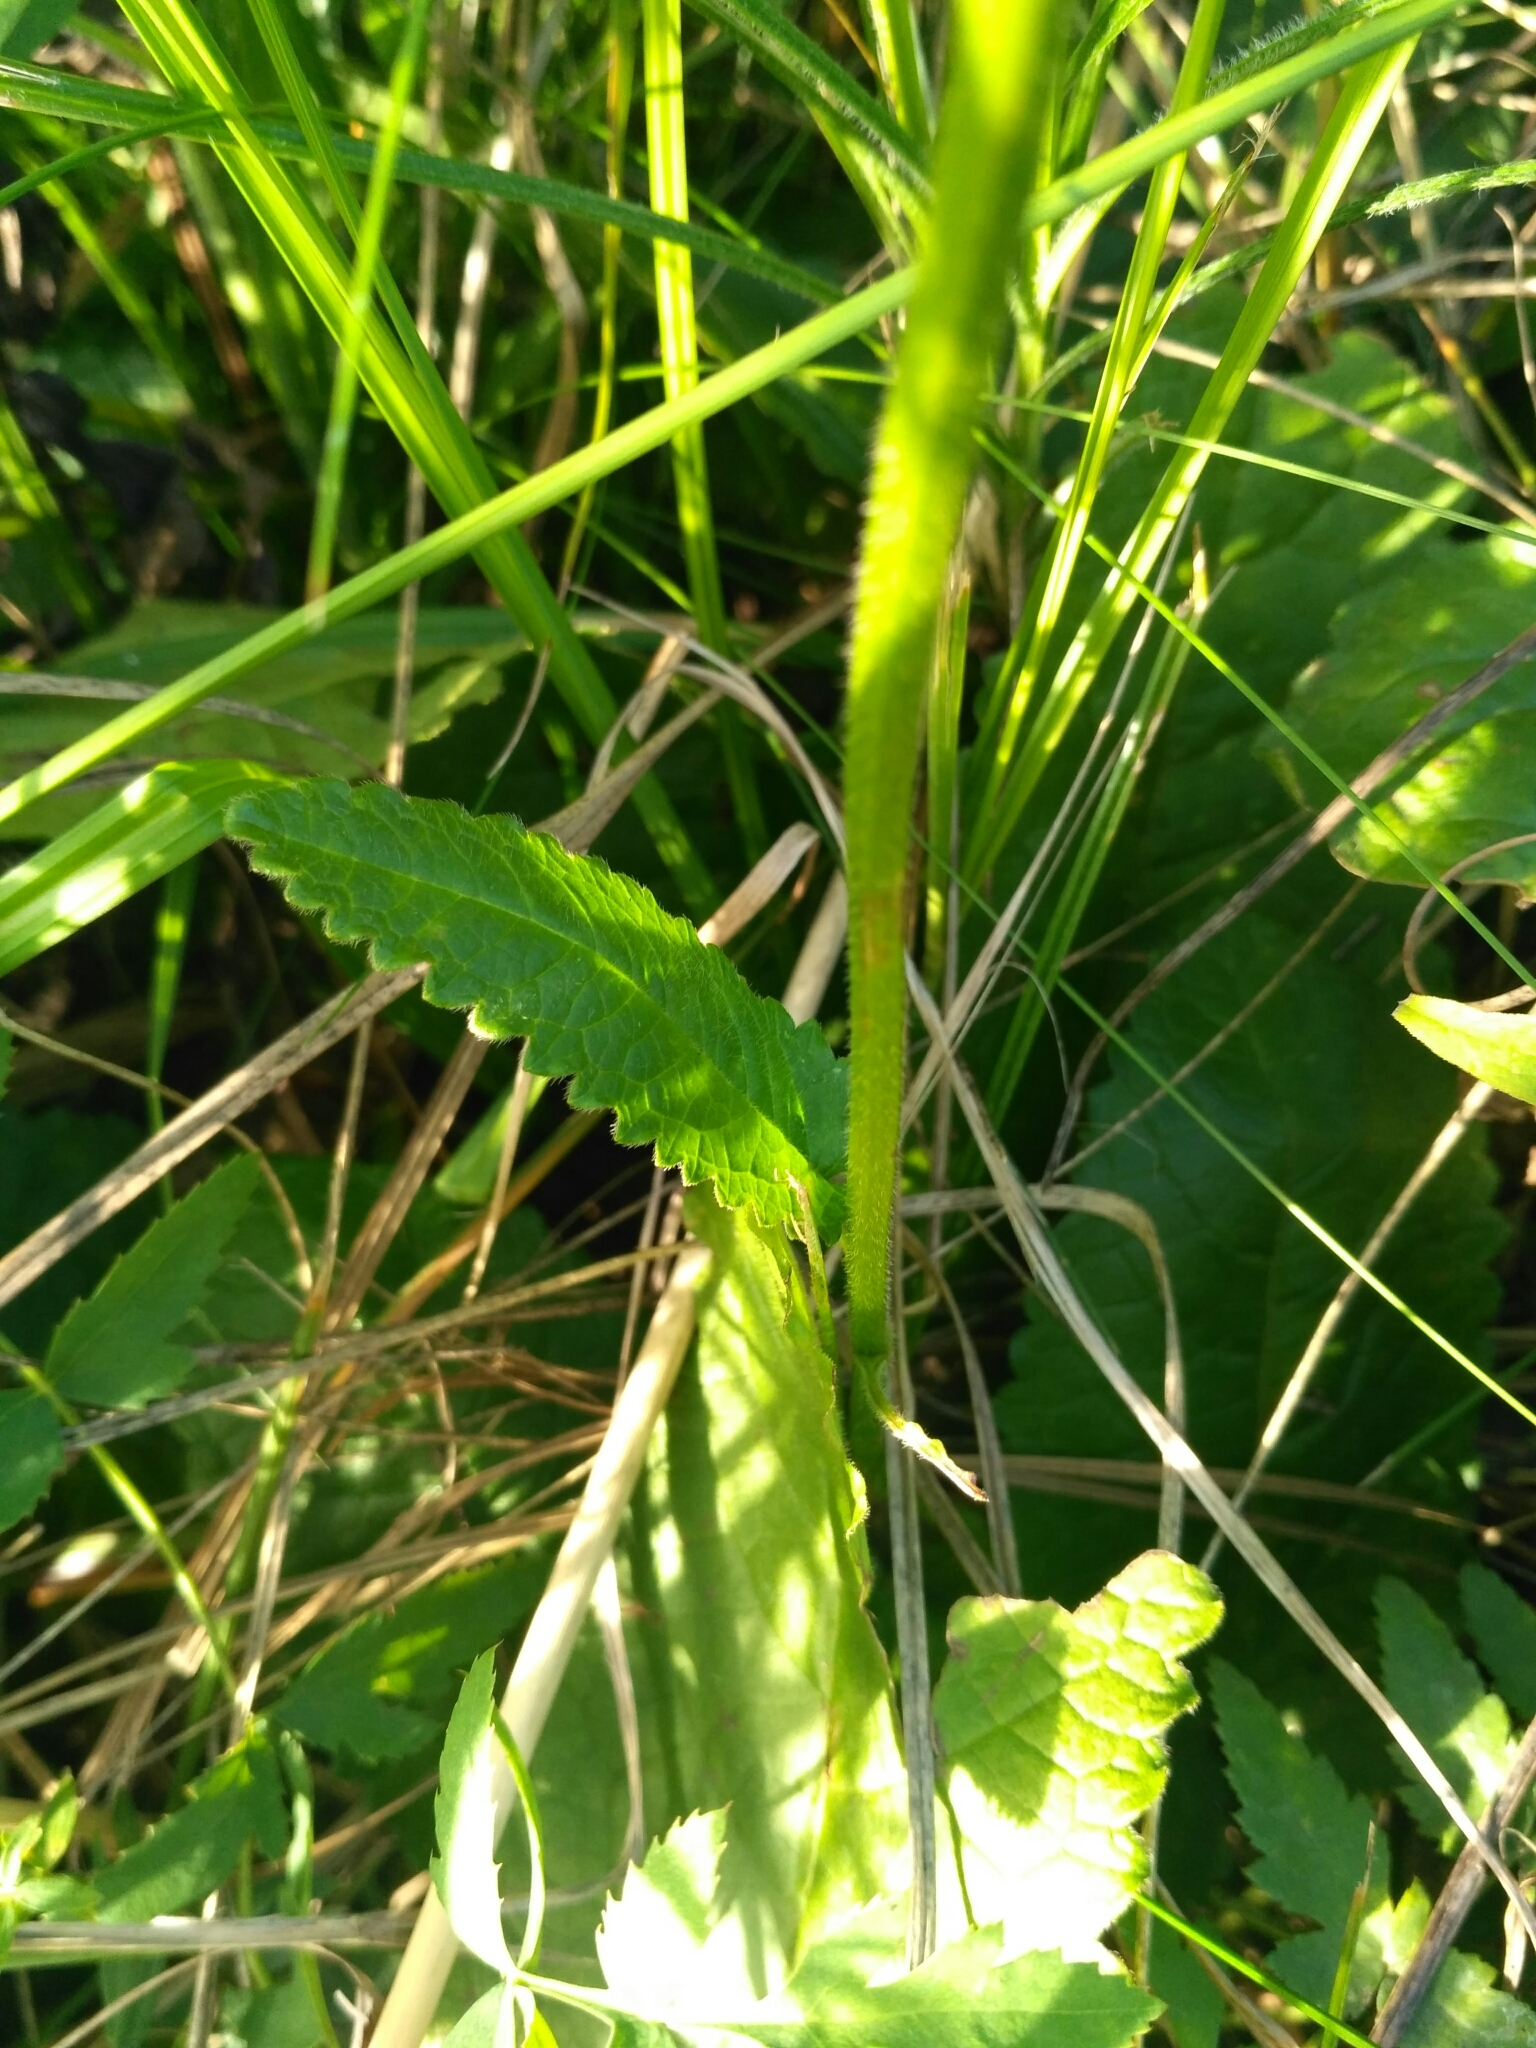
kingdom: Plantae
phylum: Tracheophyta
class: Magnoliopsida
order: Lamiales
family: Lamiaceae
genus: Betonica
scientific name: Betonica officinalis
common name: Bishop's-wort
